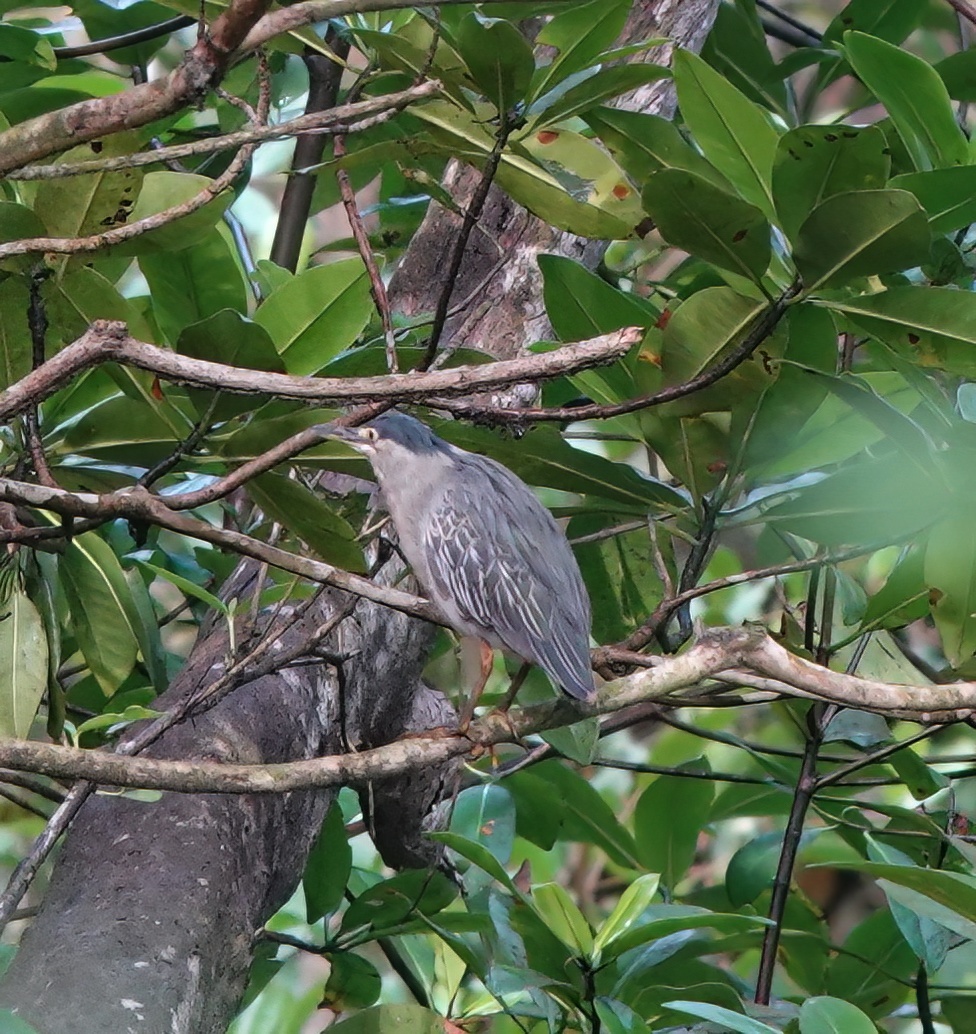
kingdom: Animalia
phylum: Chordata
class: Aves
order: Pelecaniformes
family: Ardeidae
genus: Butorides
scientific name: Butorides striata
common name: Striated heron
